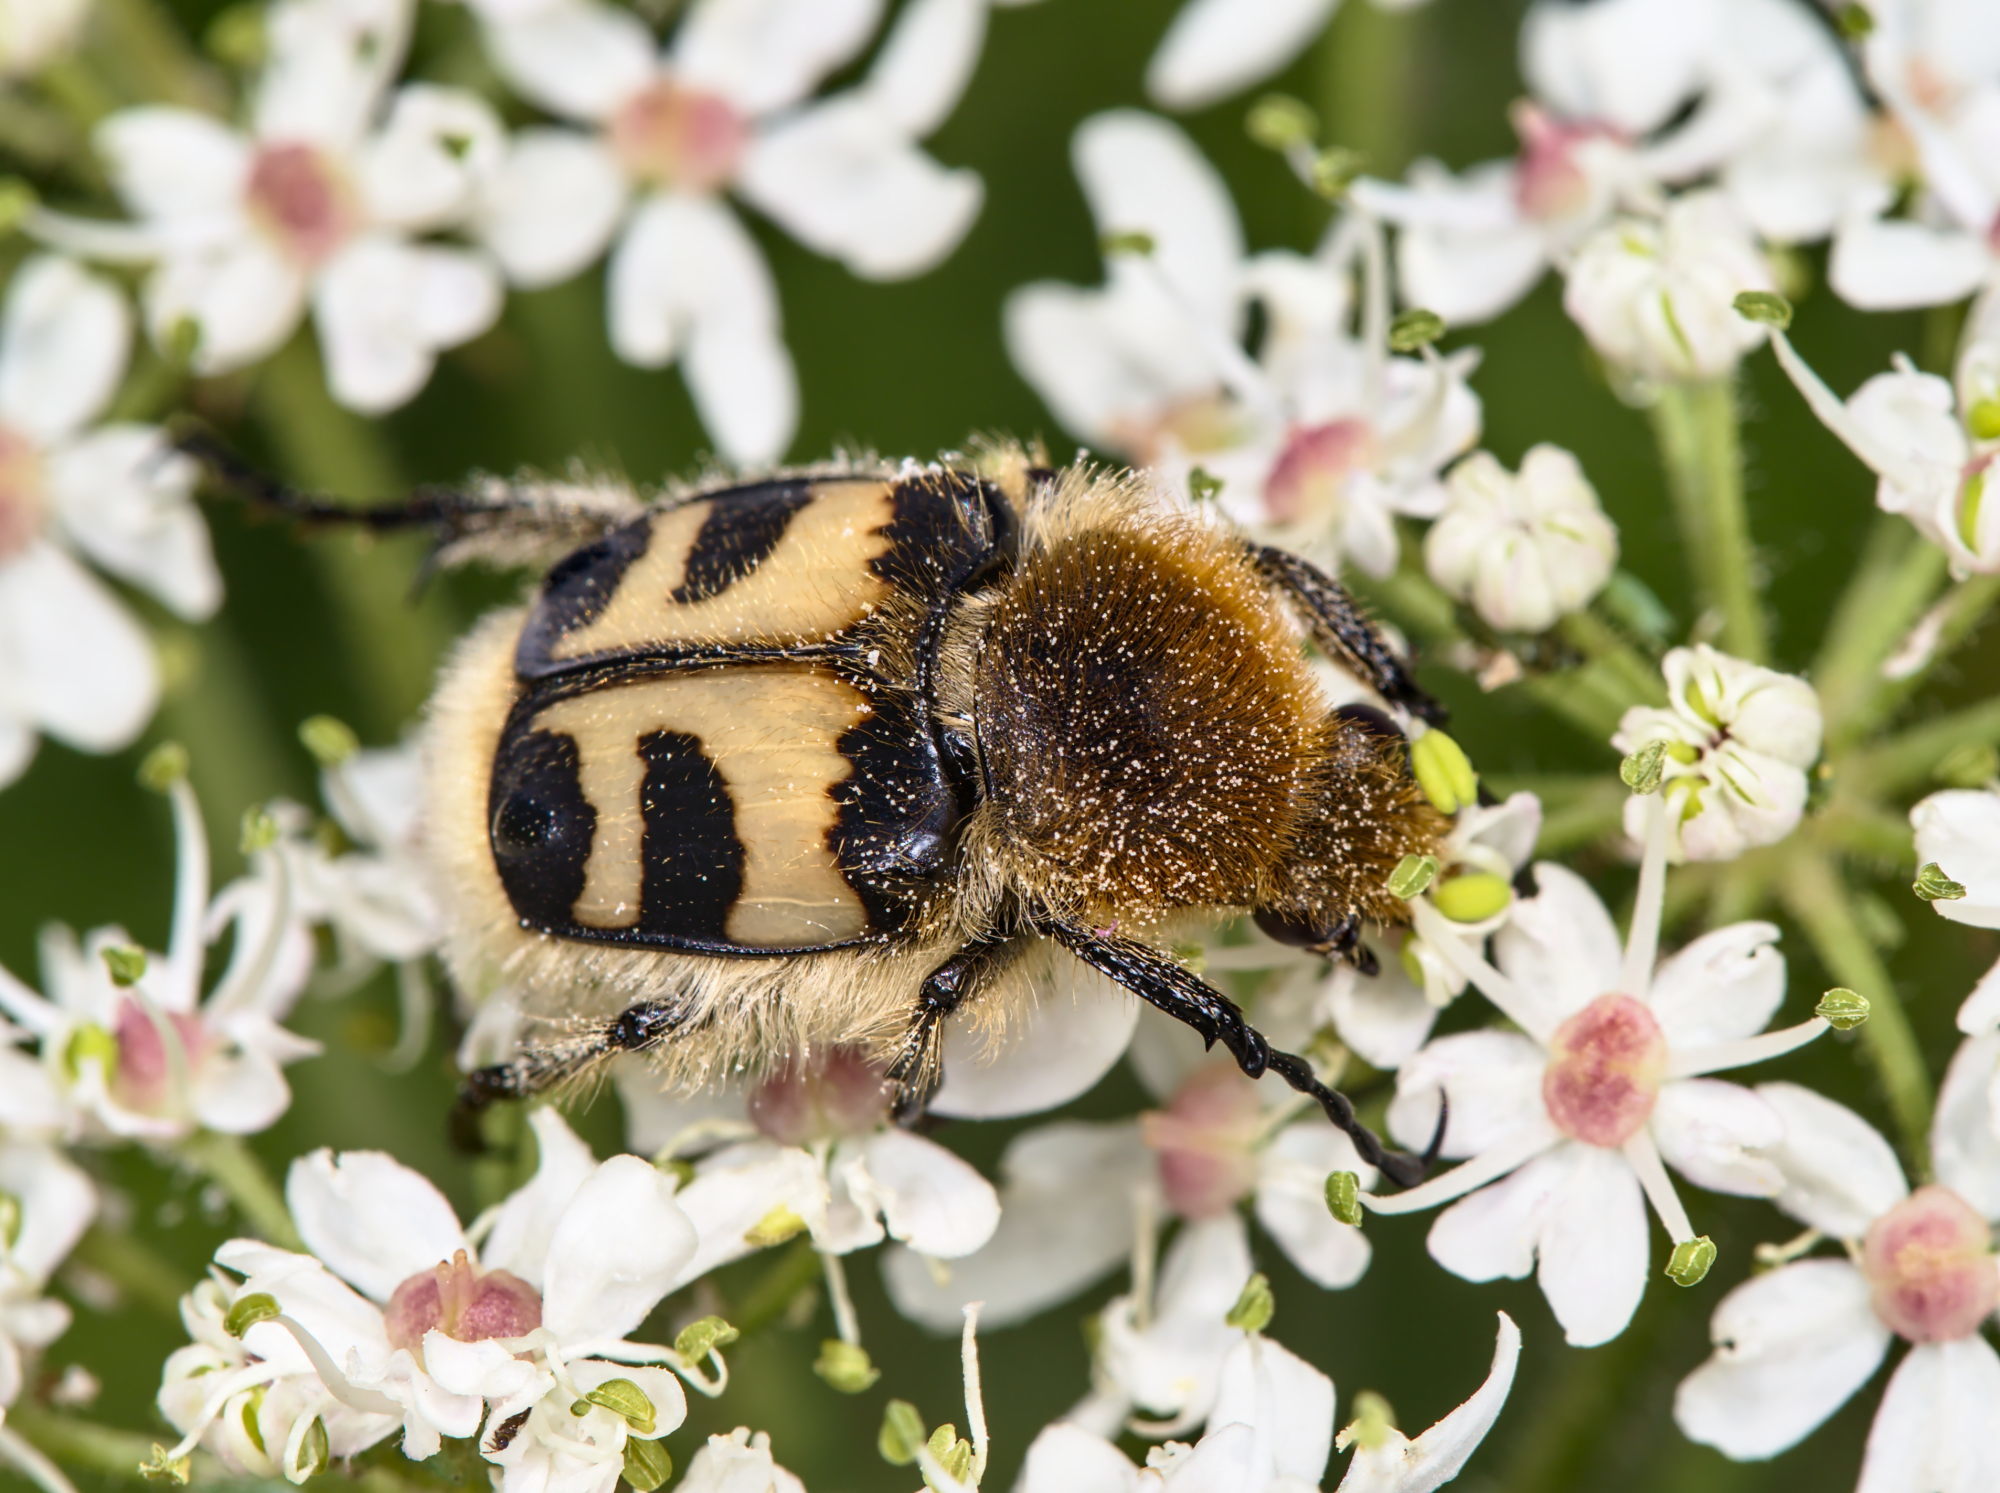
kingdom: Animalia
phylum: Arthropoda
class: Insecta
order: Coleoptera
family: Scarabaeidae
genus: Trichius
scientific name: Trichius fasciatus
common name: Bee beetle
